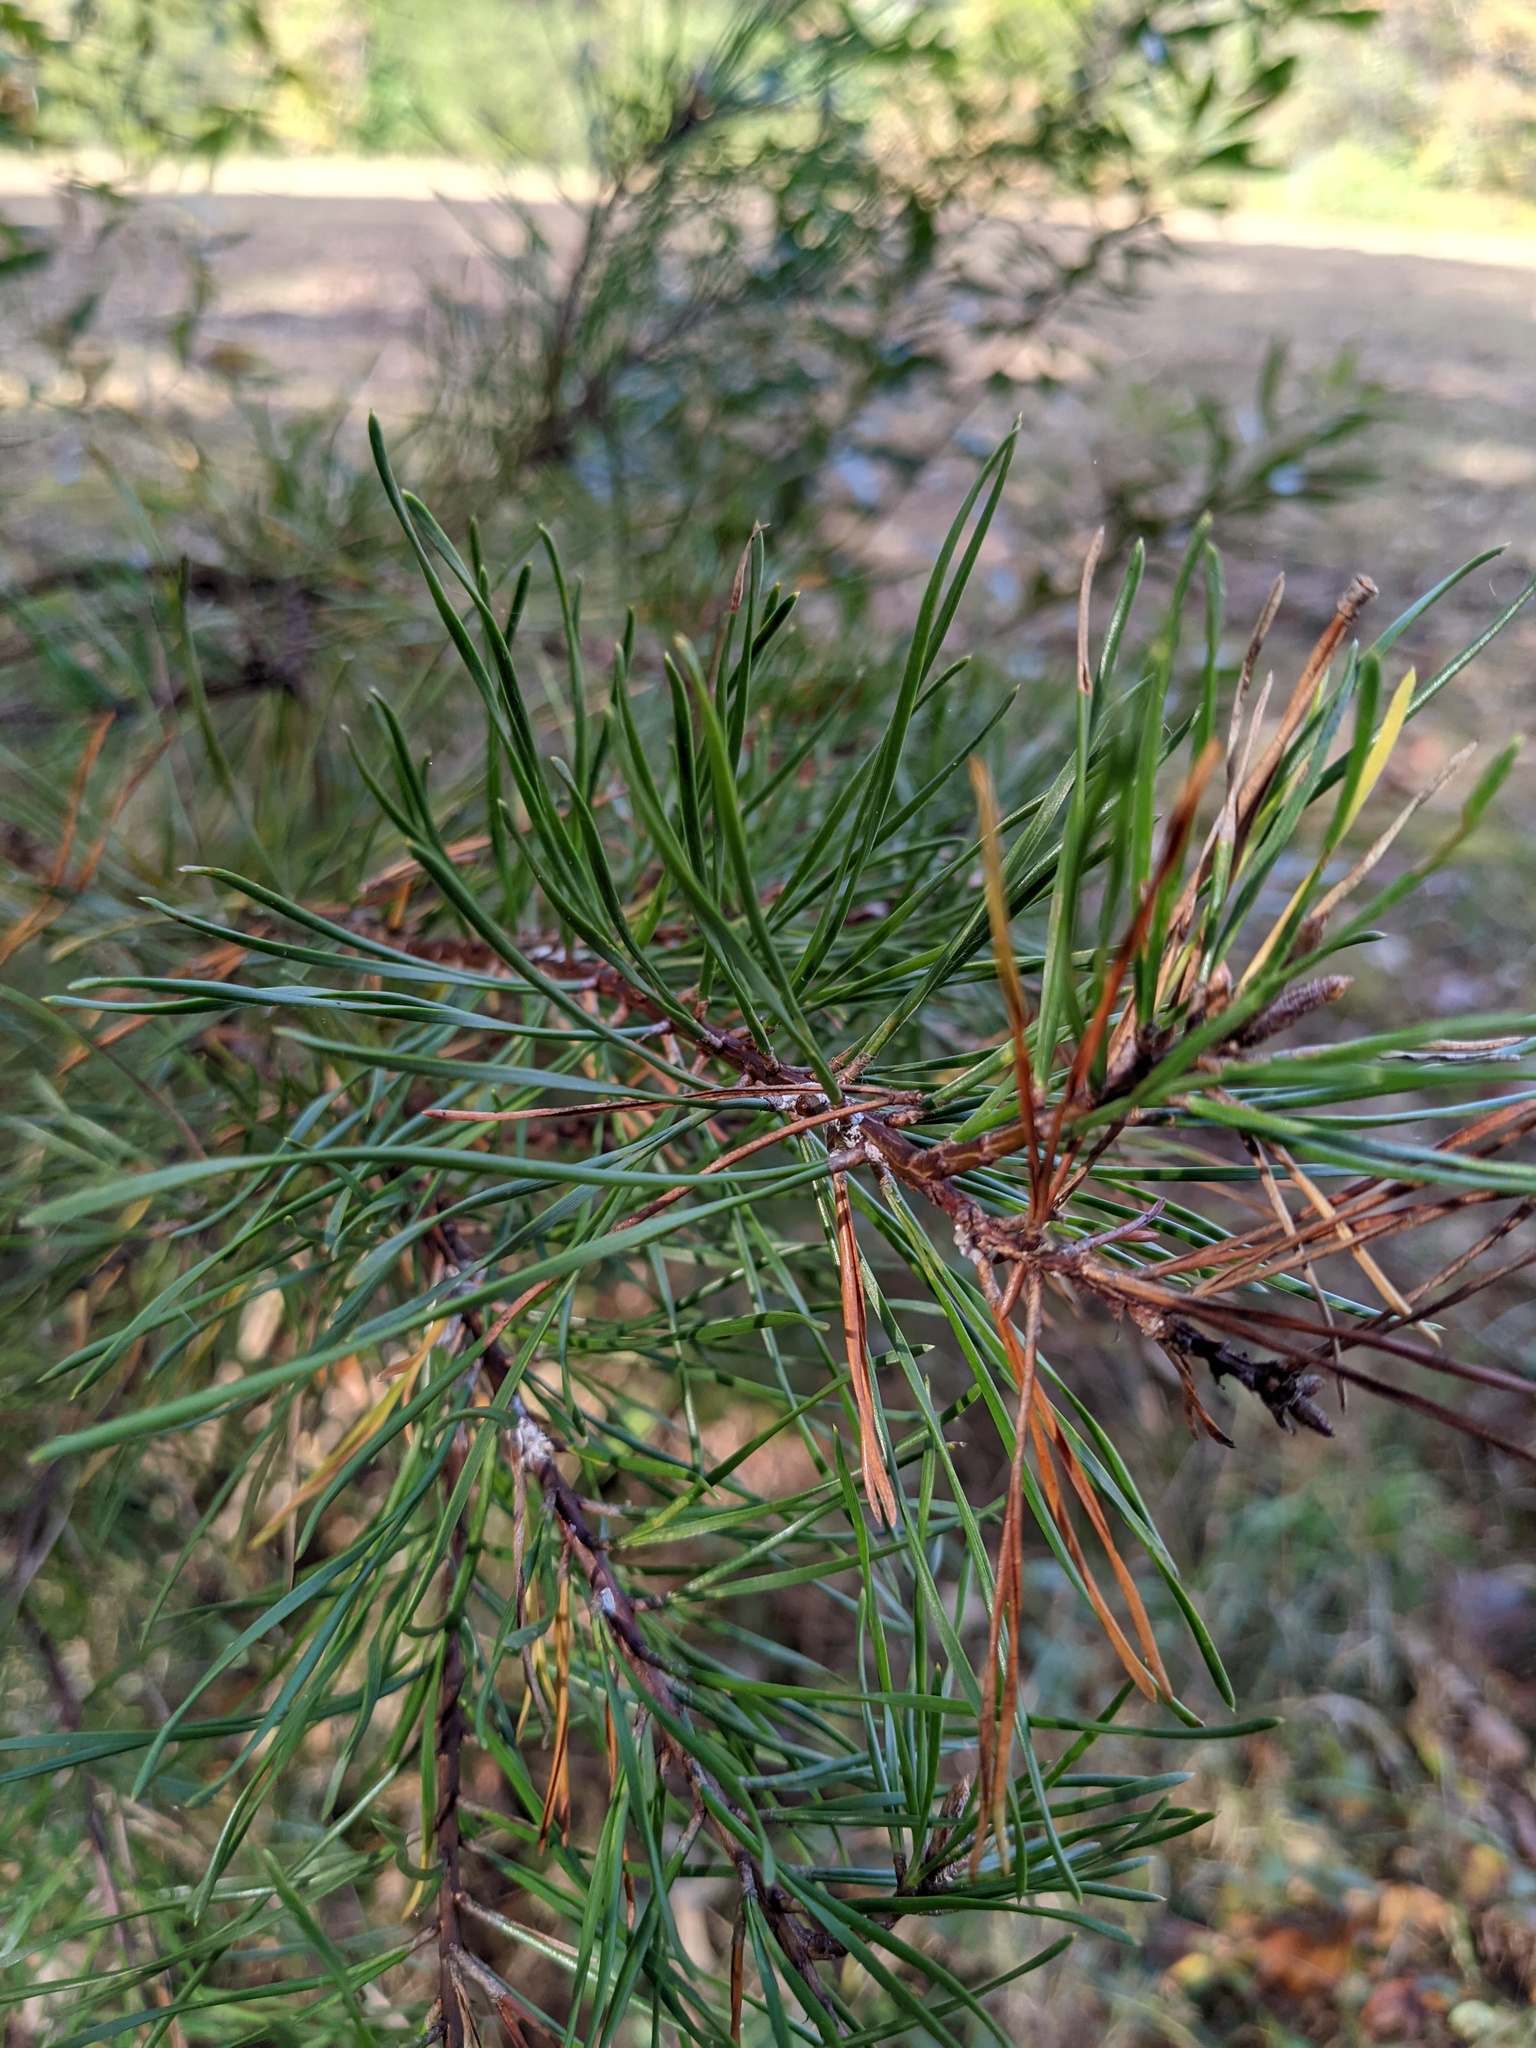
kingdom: Plantae
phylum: Tracheophyta
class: Pinopsida
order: Pinales
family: Pinaceae
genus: Pinus
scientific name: Pinus virginiana
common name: Scrub pine
